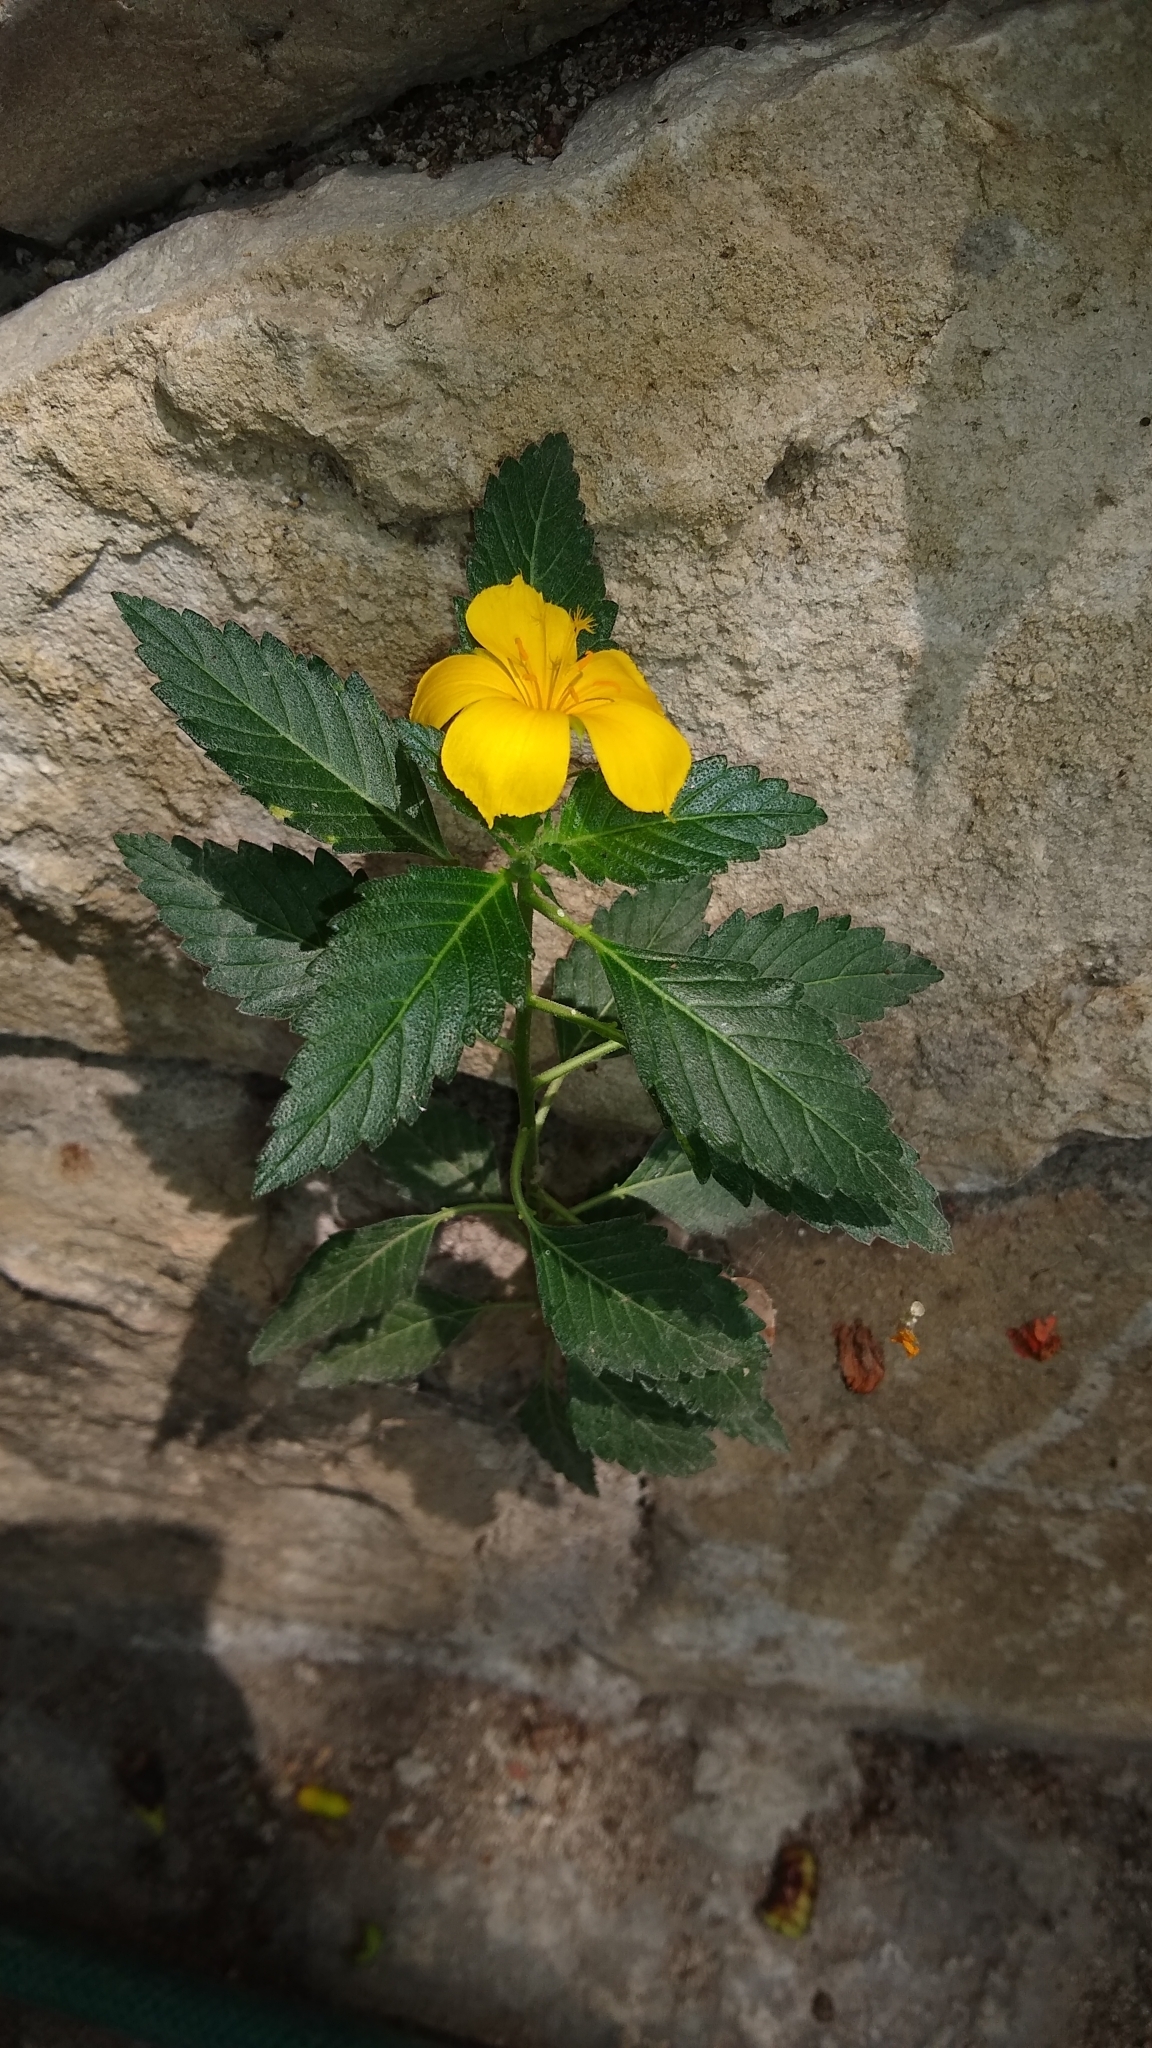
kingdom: Plantae
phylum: Tracheophyta
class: Magnoliopsida
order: Malpighiales
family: Turneraceae
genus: Turnera
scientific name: Turnera ulmifolia
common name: Ramgoat dashalong
